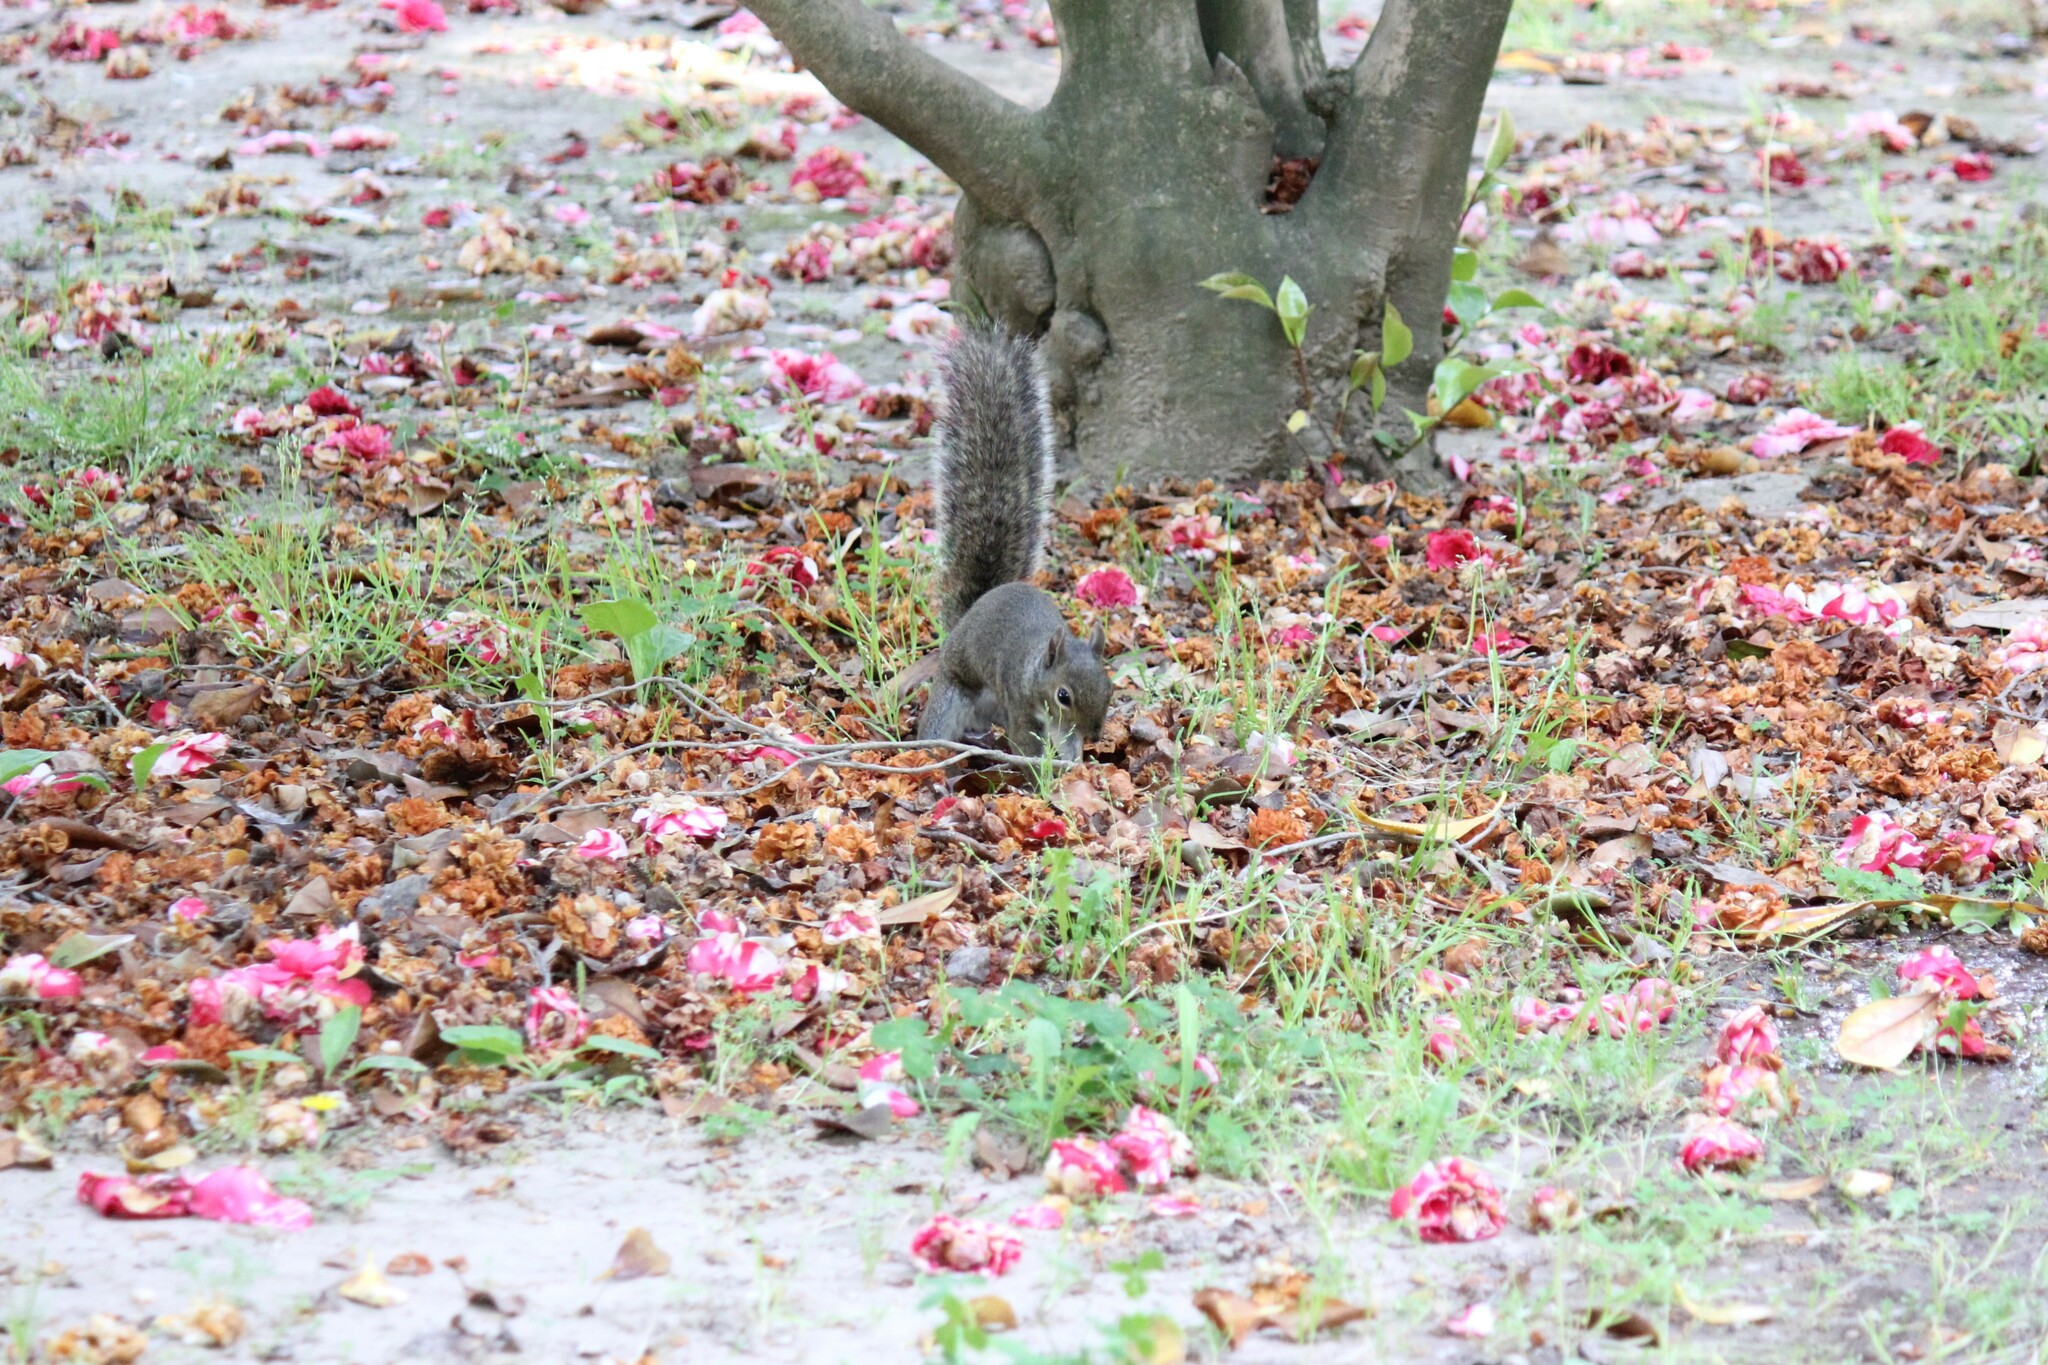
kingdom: Animalia
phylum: Chordata
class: Mammalia
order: Rodentia
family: Sciuridae
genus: Sciurus
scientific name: Sciurus carolinensis
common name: Eastern gray squirrel
